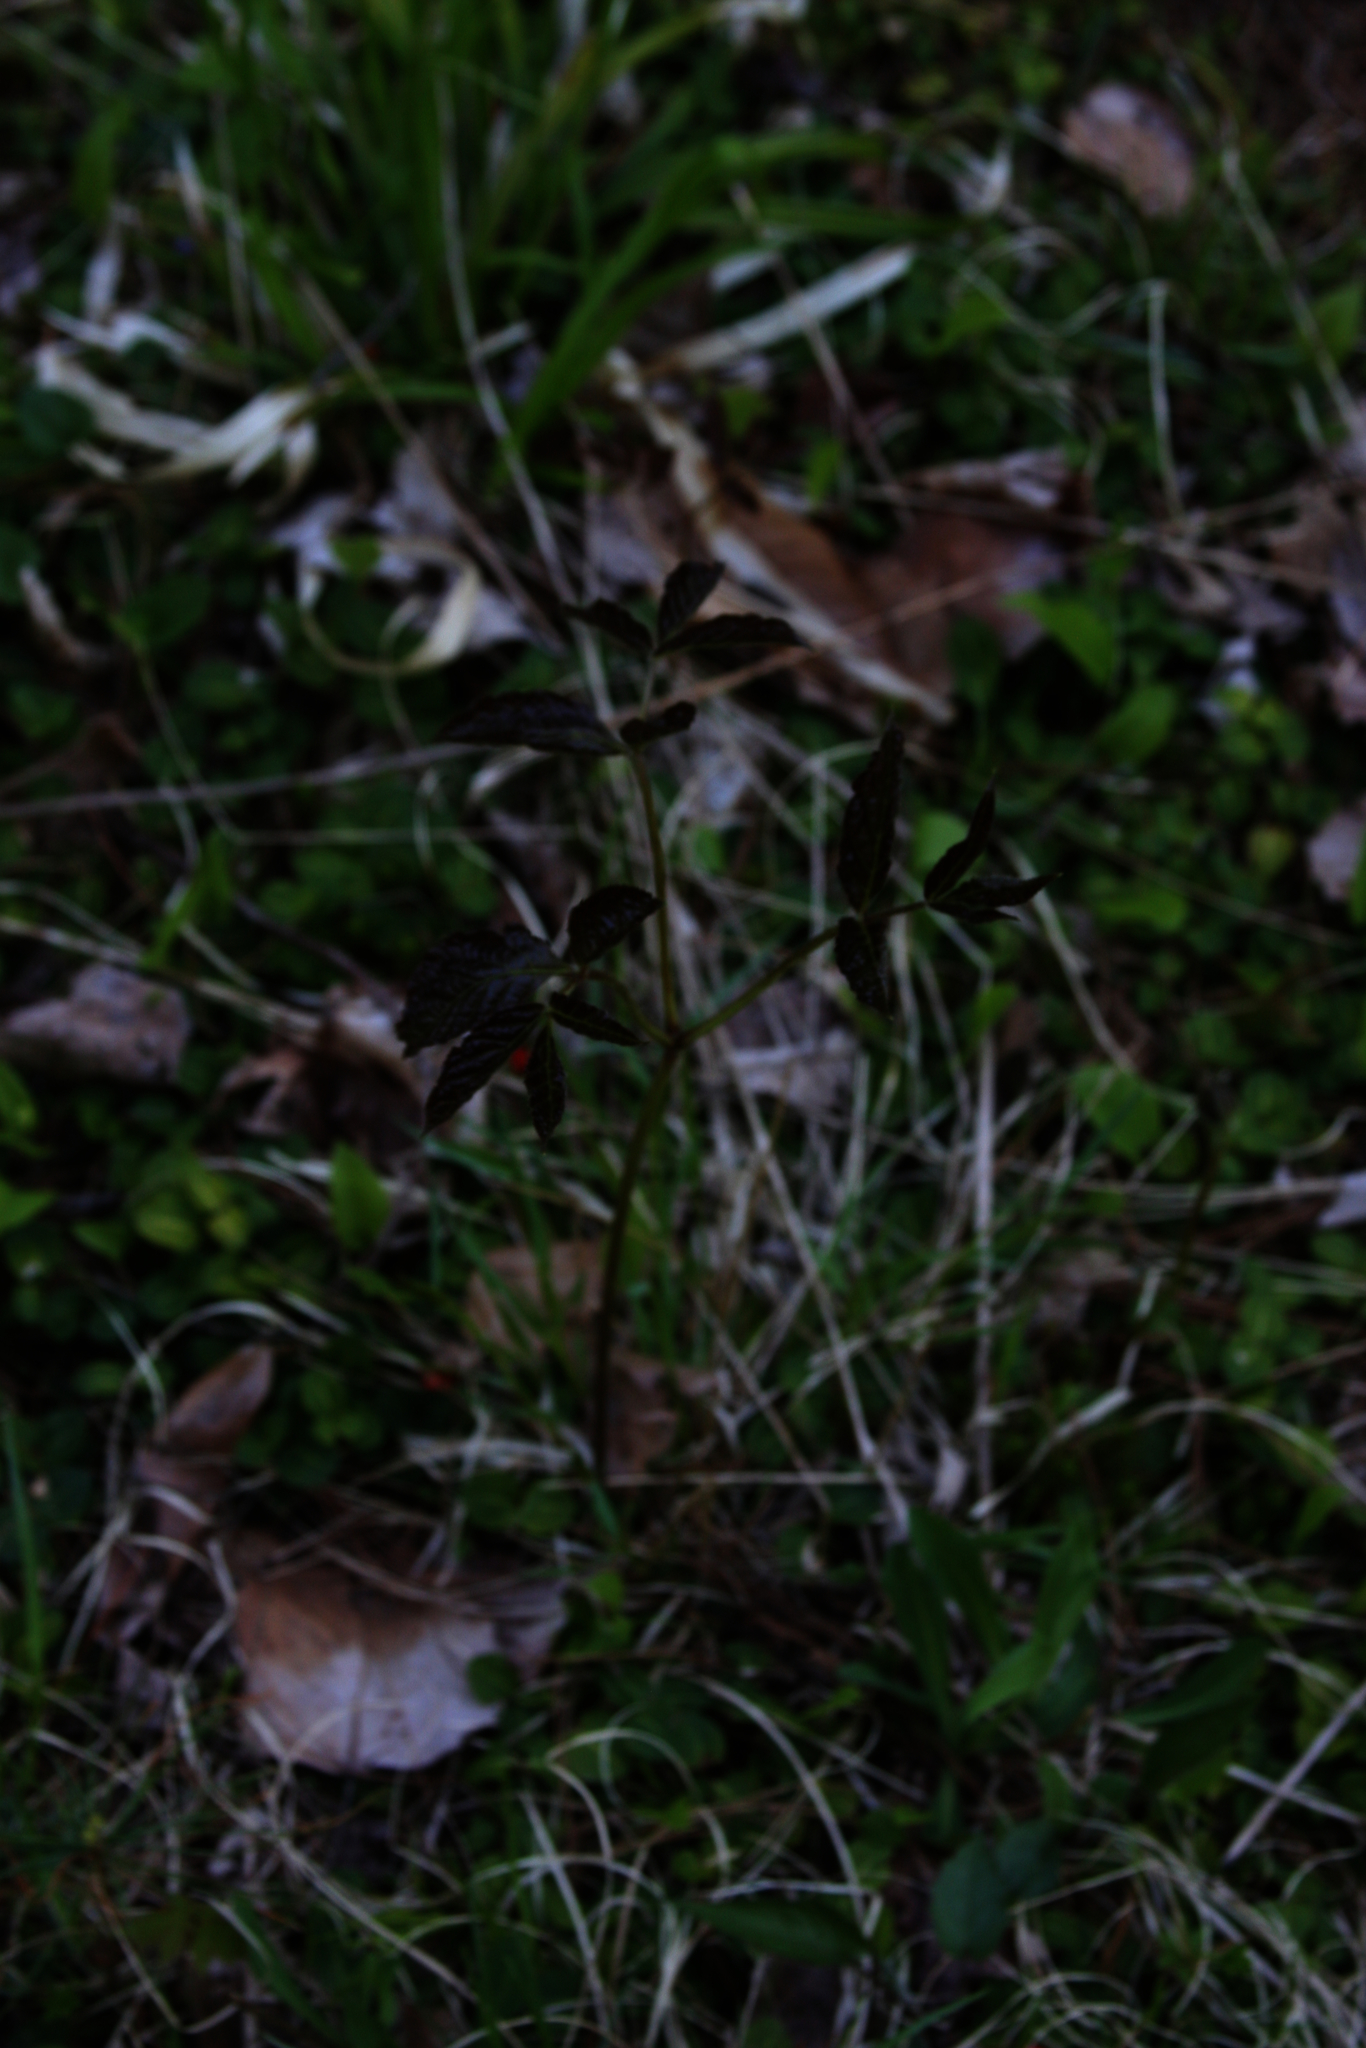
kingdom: Plantae
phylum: Tracheophyta
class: Magnoliopsida
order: Apiales
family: Araliaceae
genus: Aralia
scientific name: Aralia nudicaulis
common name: Wild sarsaparilla
